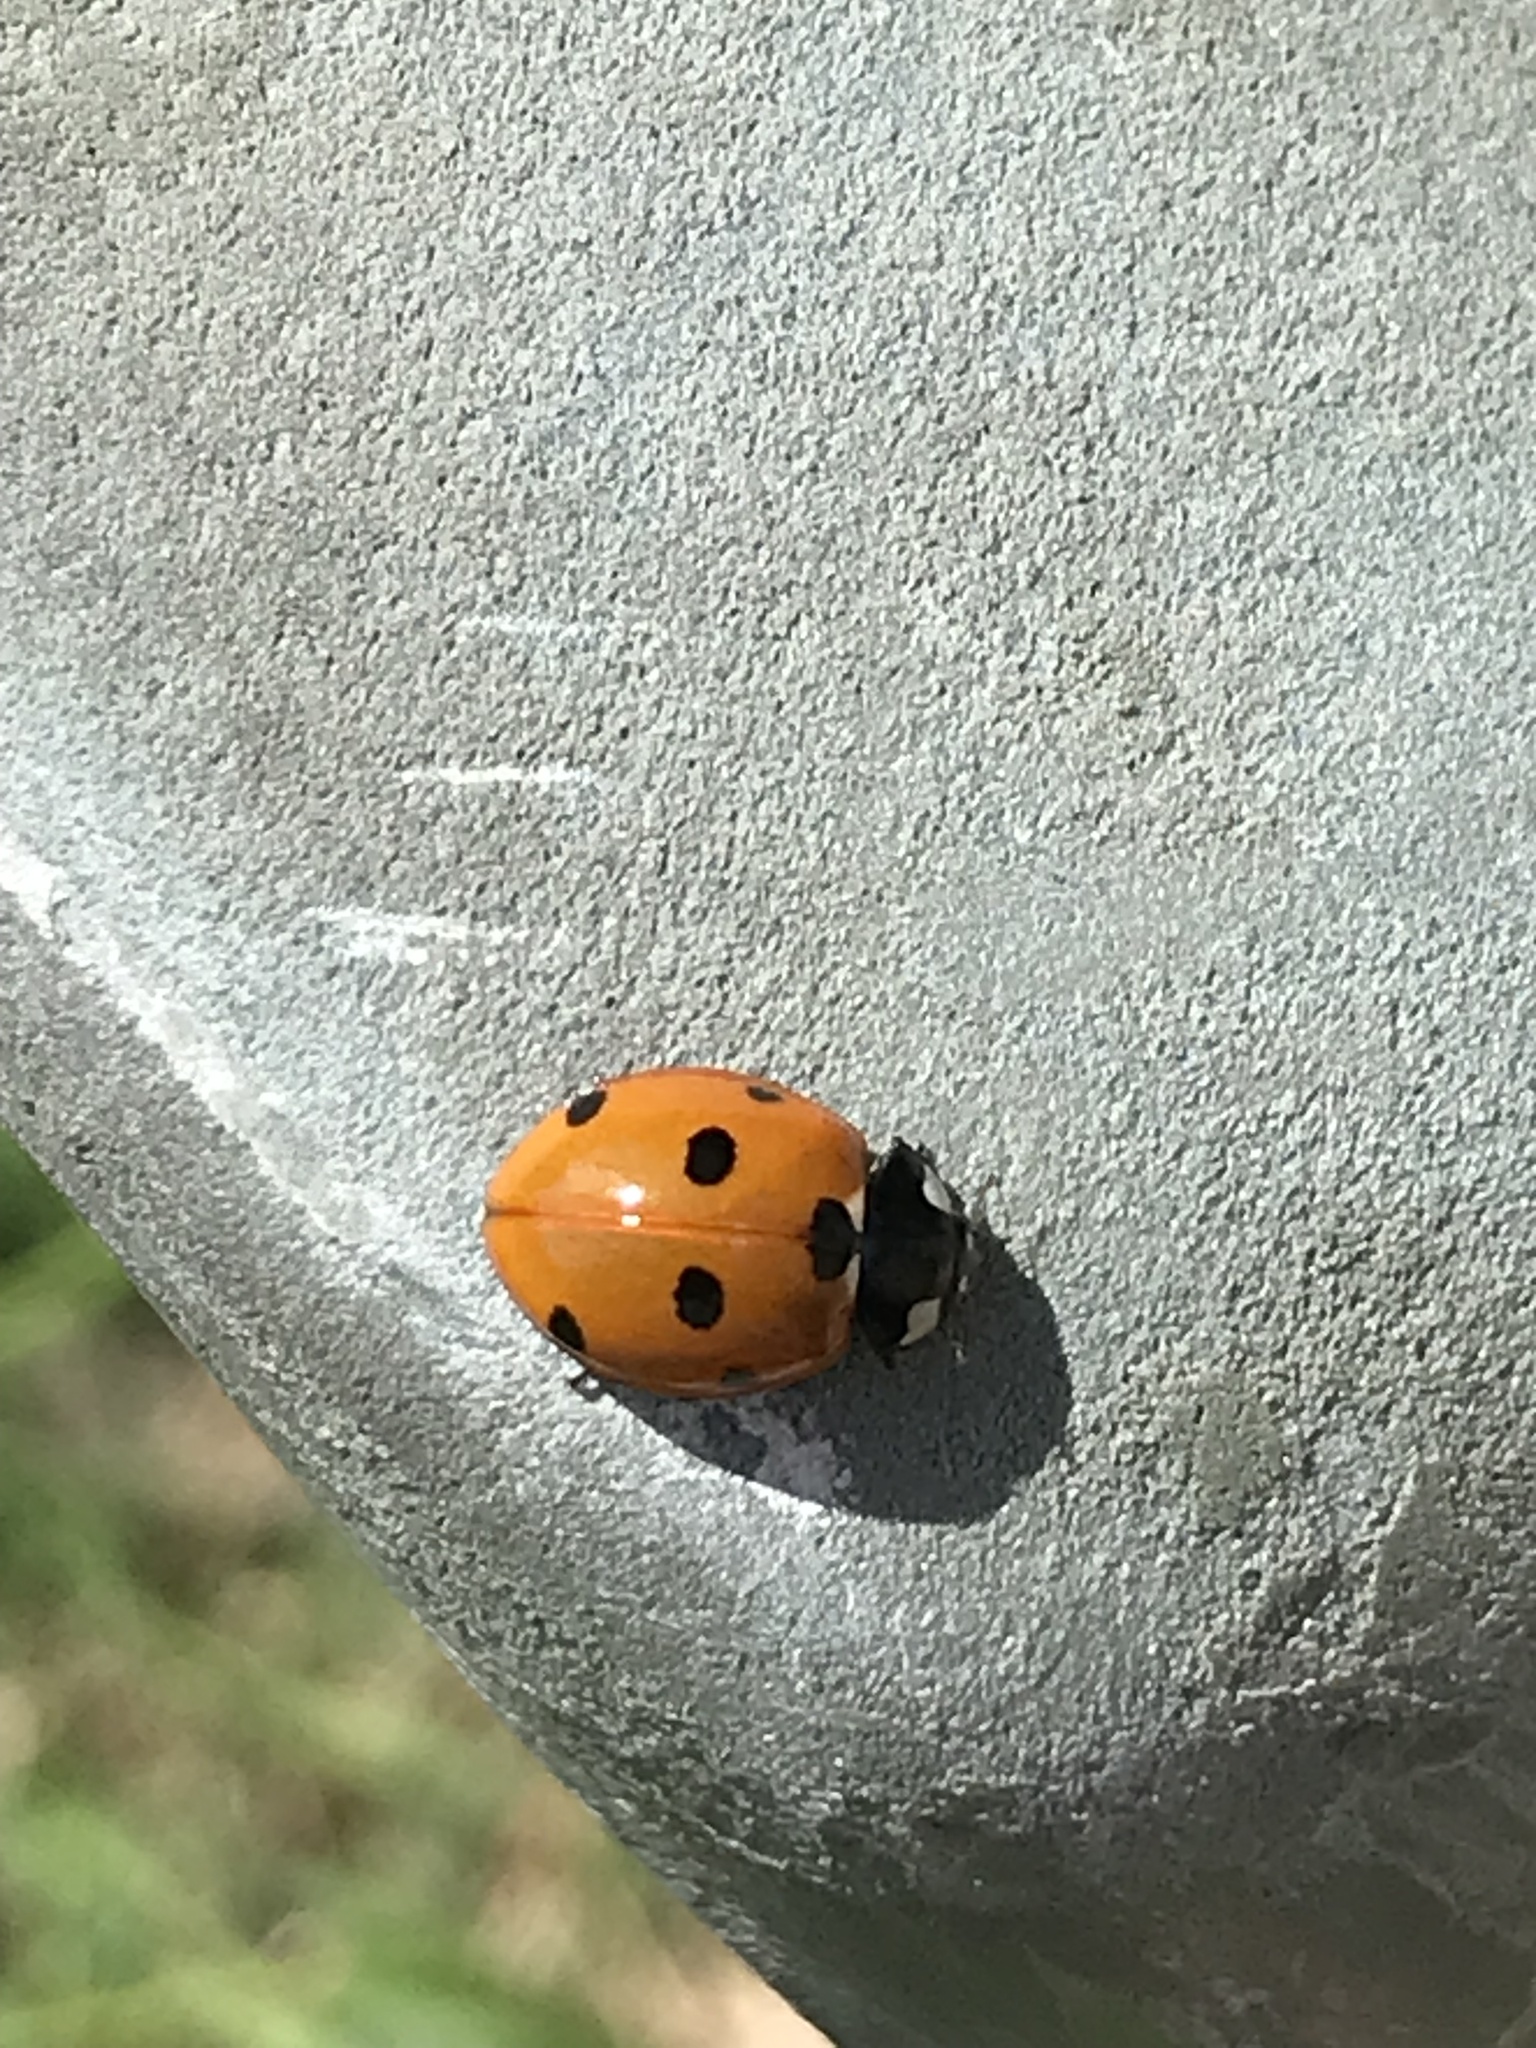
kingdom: Animalia
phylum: Arthropoda
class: Insecta
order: Coleoptera
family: Coccinellidae
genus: Coccinella
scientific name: Coccinella septempunctata
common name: Sevenspotted lady beetle
